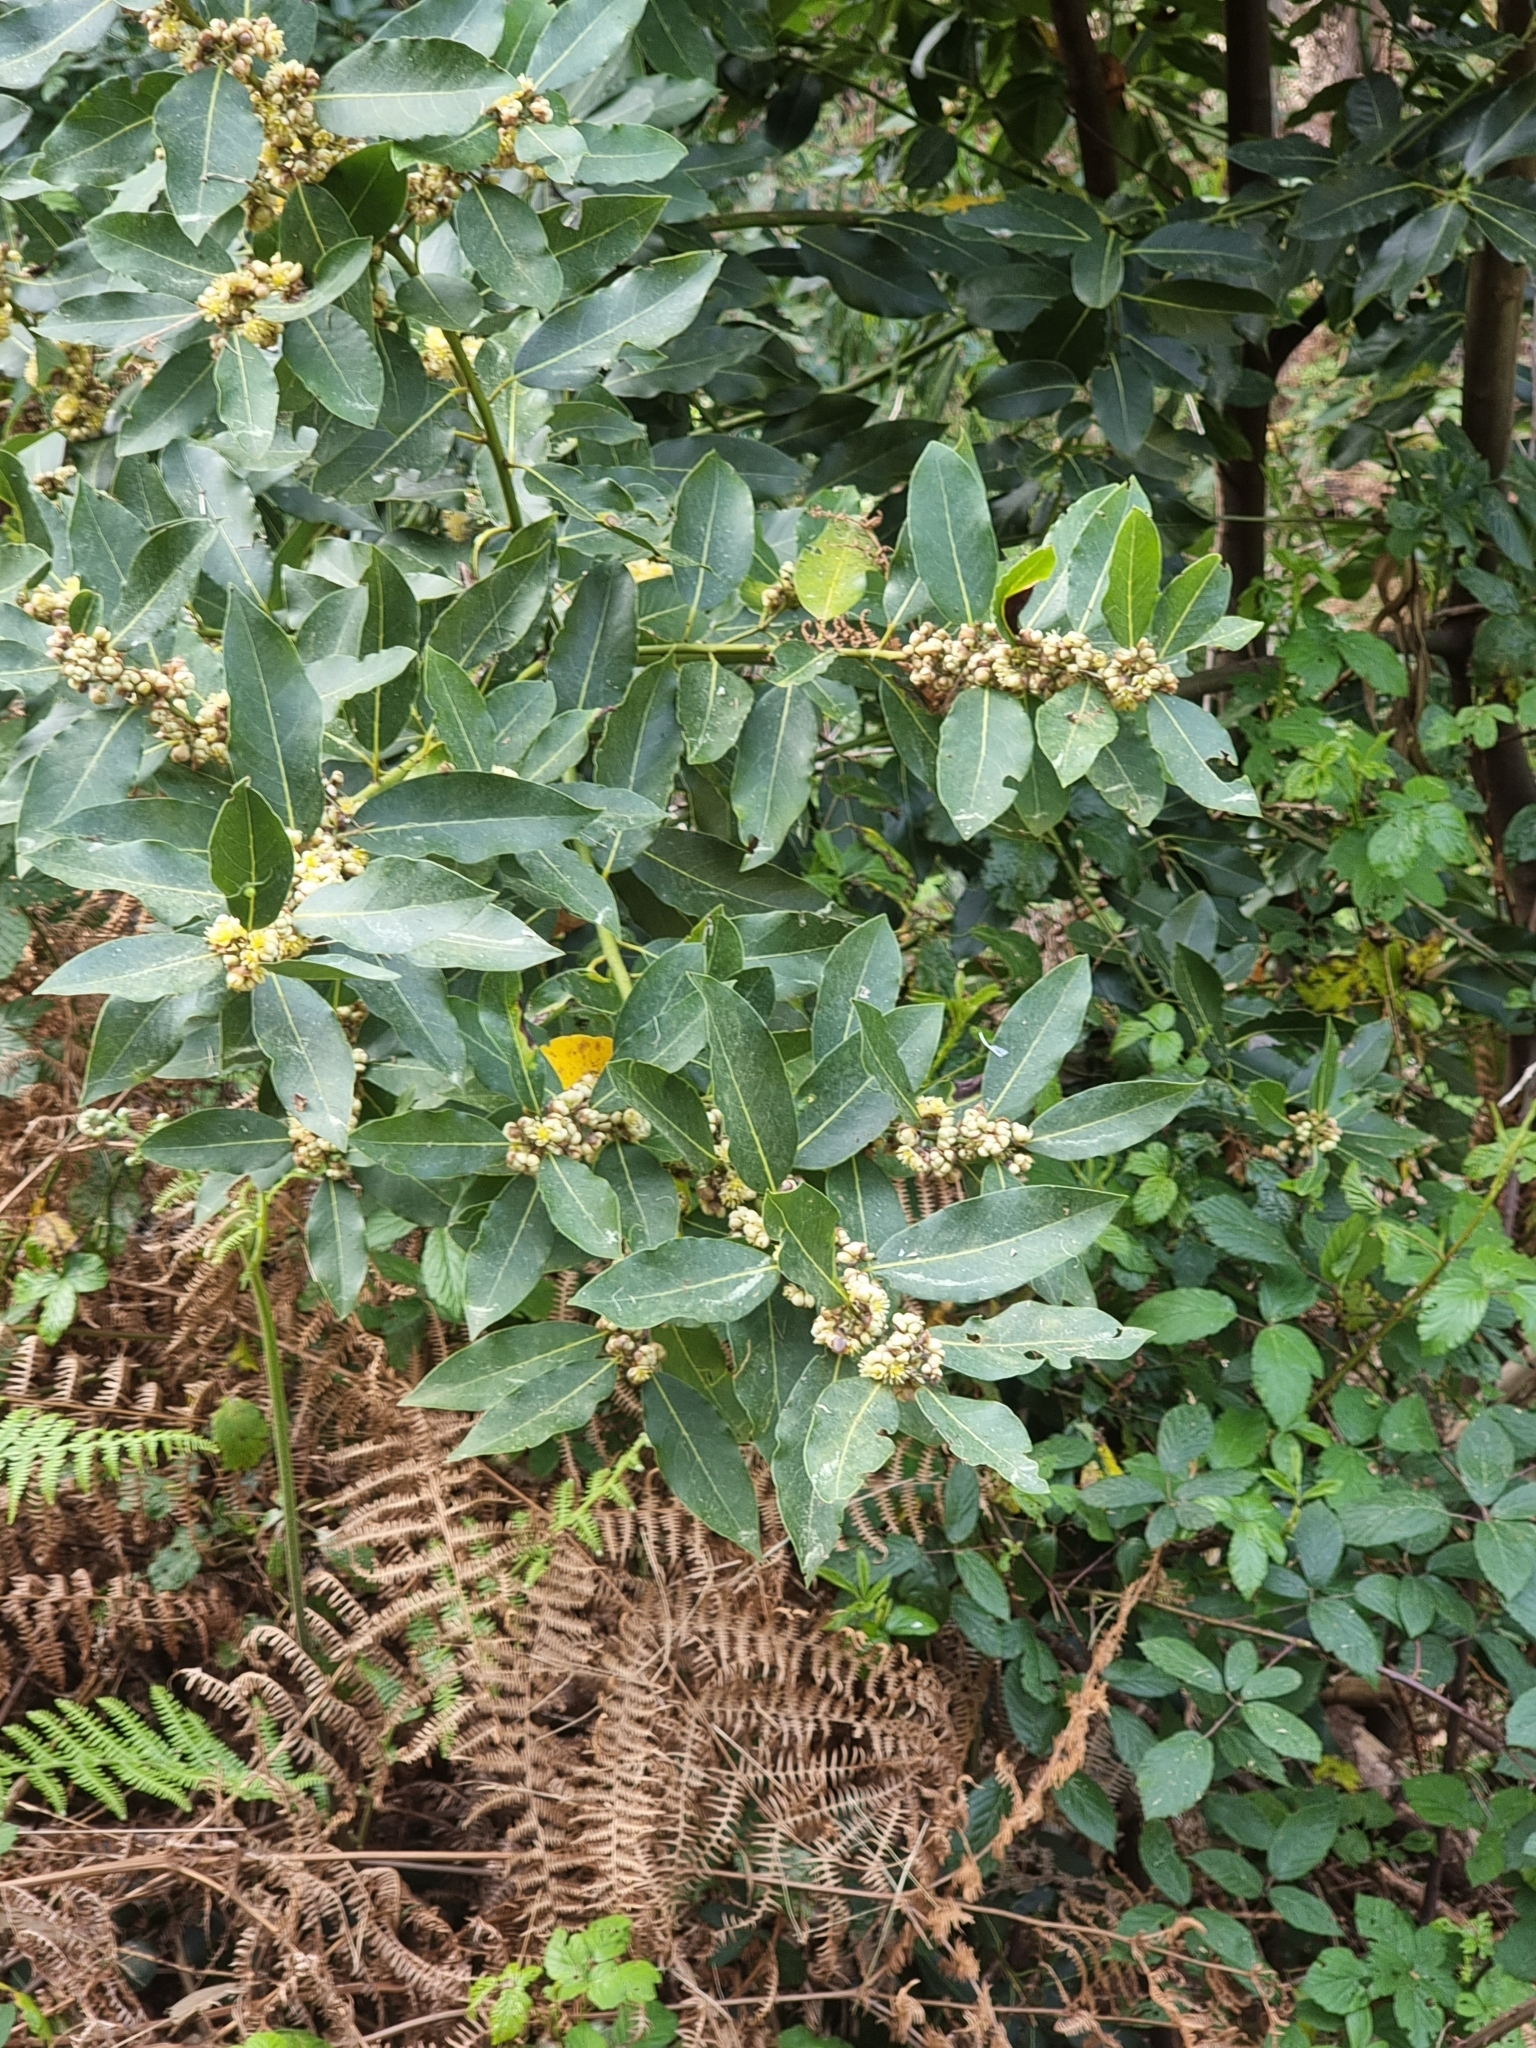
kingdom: Plantae
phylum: Tracheophyta
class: Magnoliopsida
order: Laurales
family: Lauraceae
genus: Laurus
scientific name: Laurus novocanariensis
